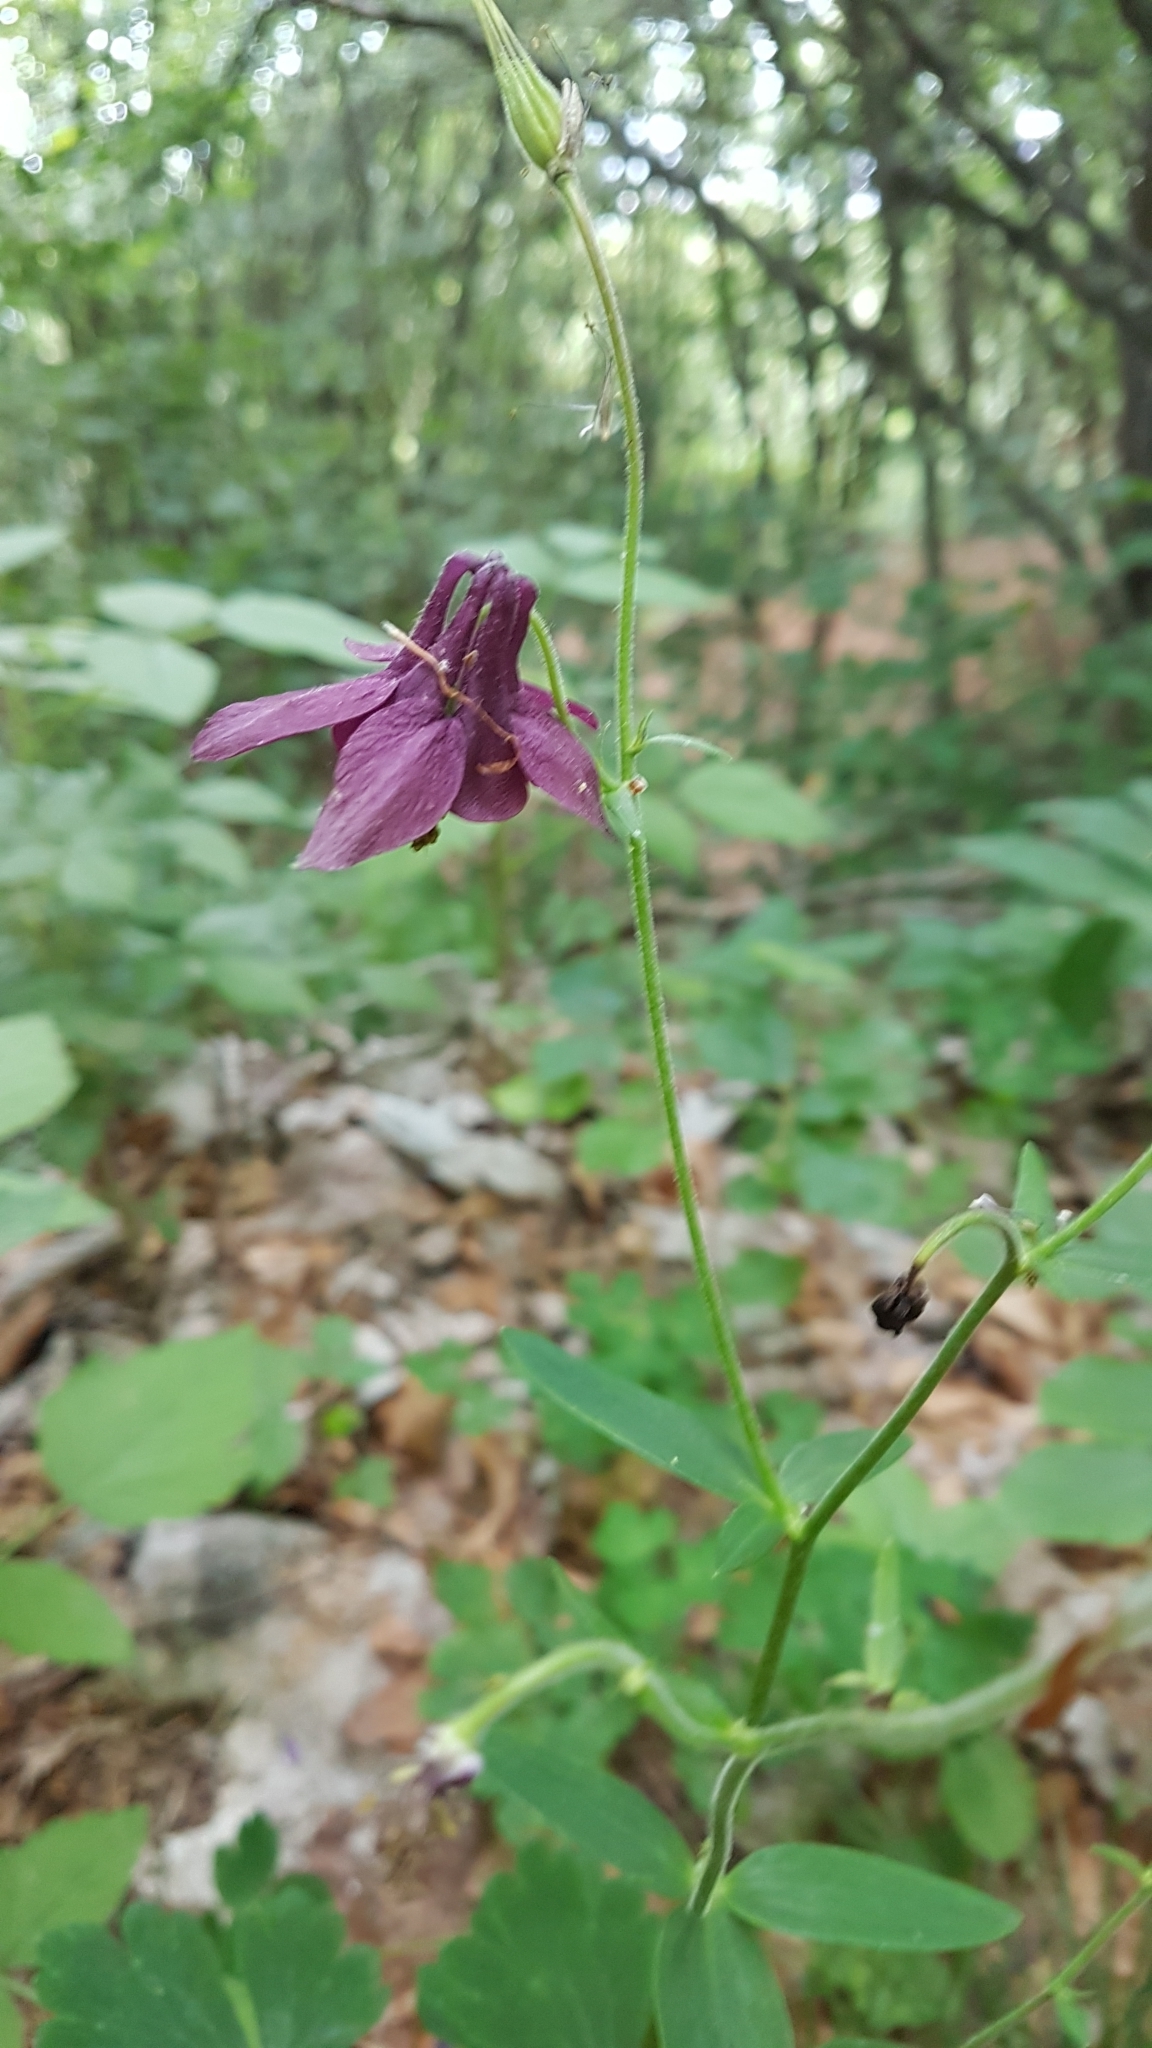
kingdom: Plantae
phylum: Tracheophyta
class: Magnoliopsida
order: Ranunculales
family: Ranunculaceae
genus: Aquilegia
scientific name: Aquilegia atrata
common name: Dark columbine
